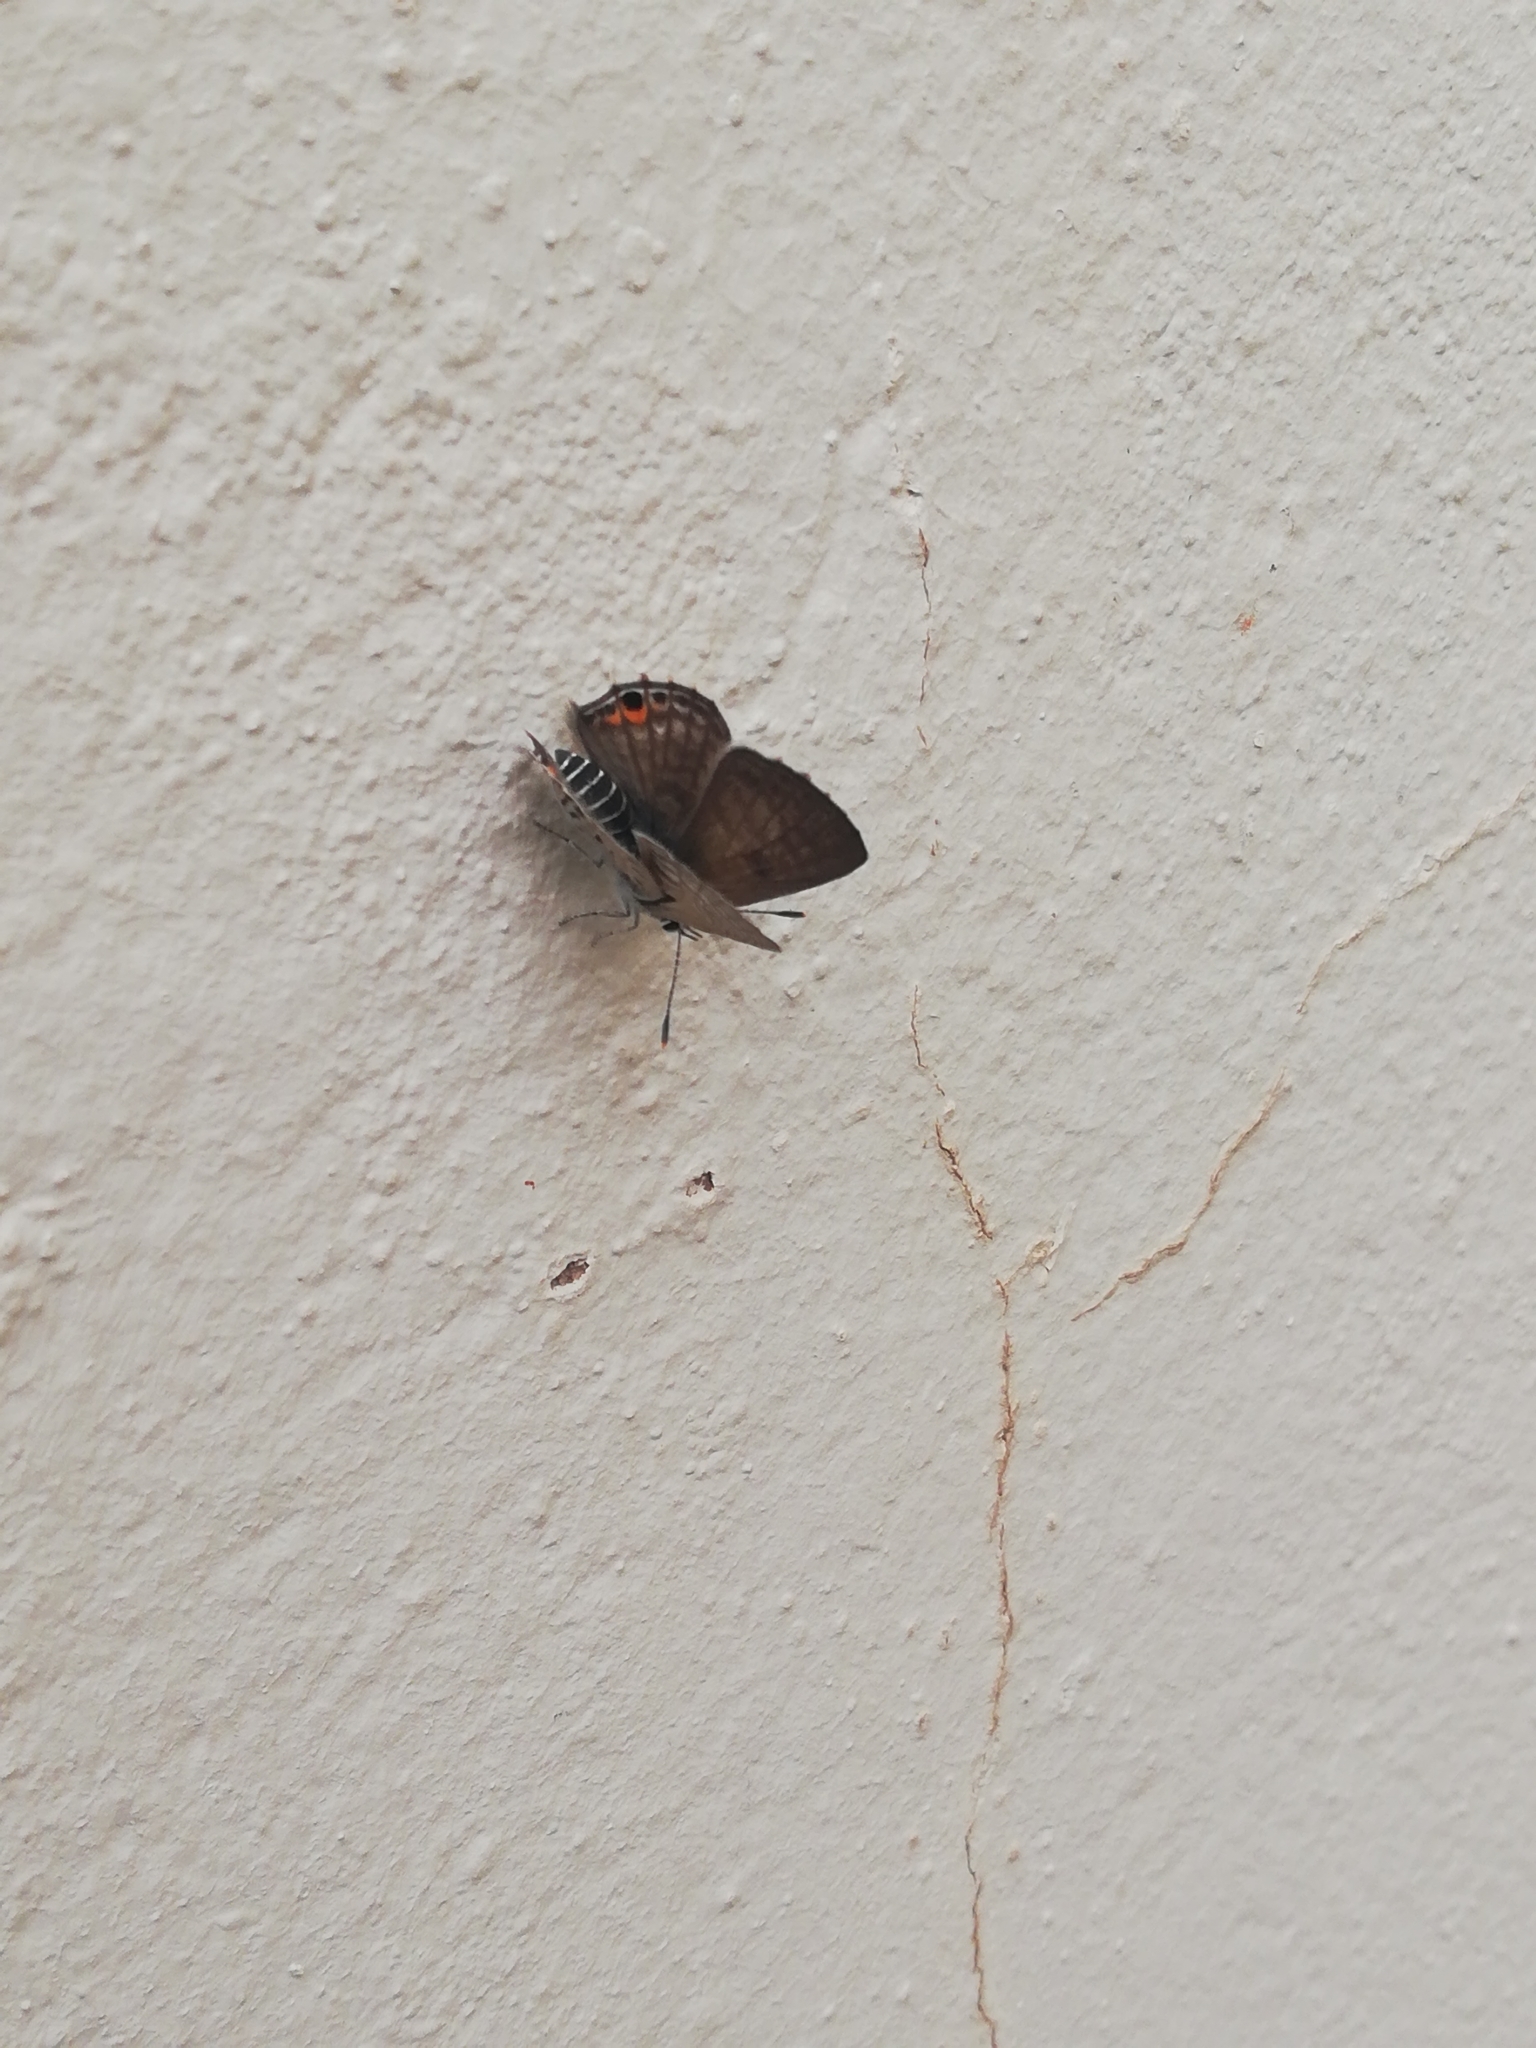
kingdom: Animalia
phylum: Arthropoda
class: Insecta
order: Lepidoptera
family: Lycaenidae
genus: Anthene
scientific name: Anthene amarah
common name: Black-striped hairtail
